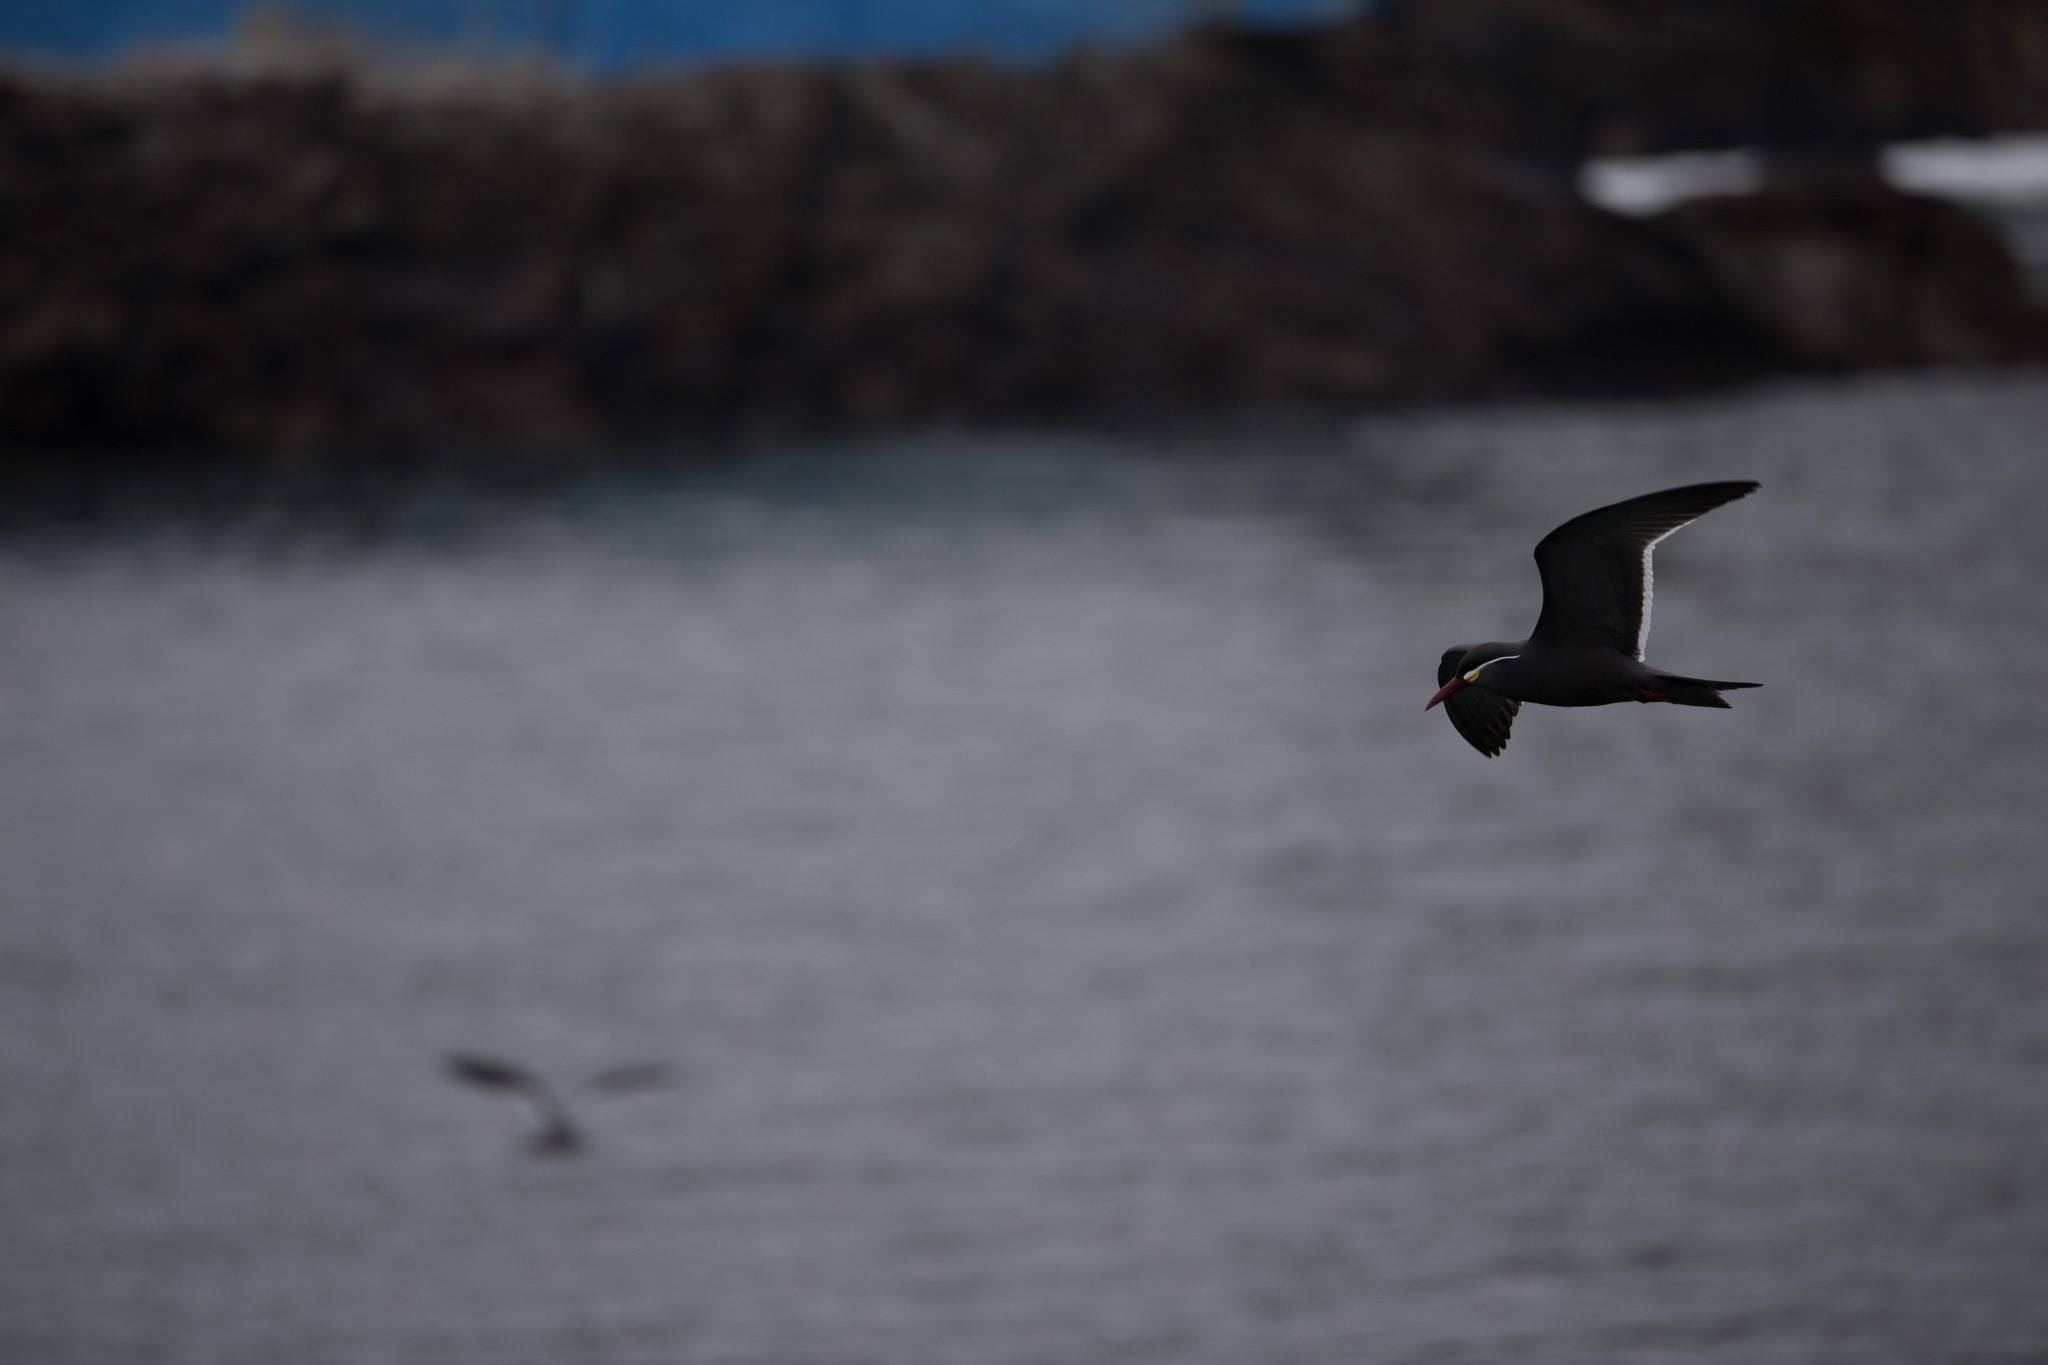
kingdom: Animalia
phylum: Chordata
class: Aves
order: Charadriiformes
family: Laridae
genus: Larosterna
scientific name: Larosterna inca
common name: Inca tern
